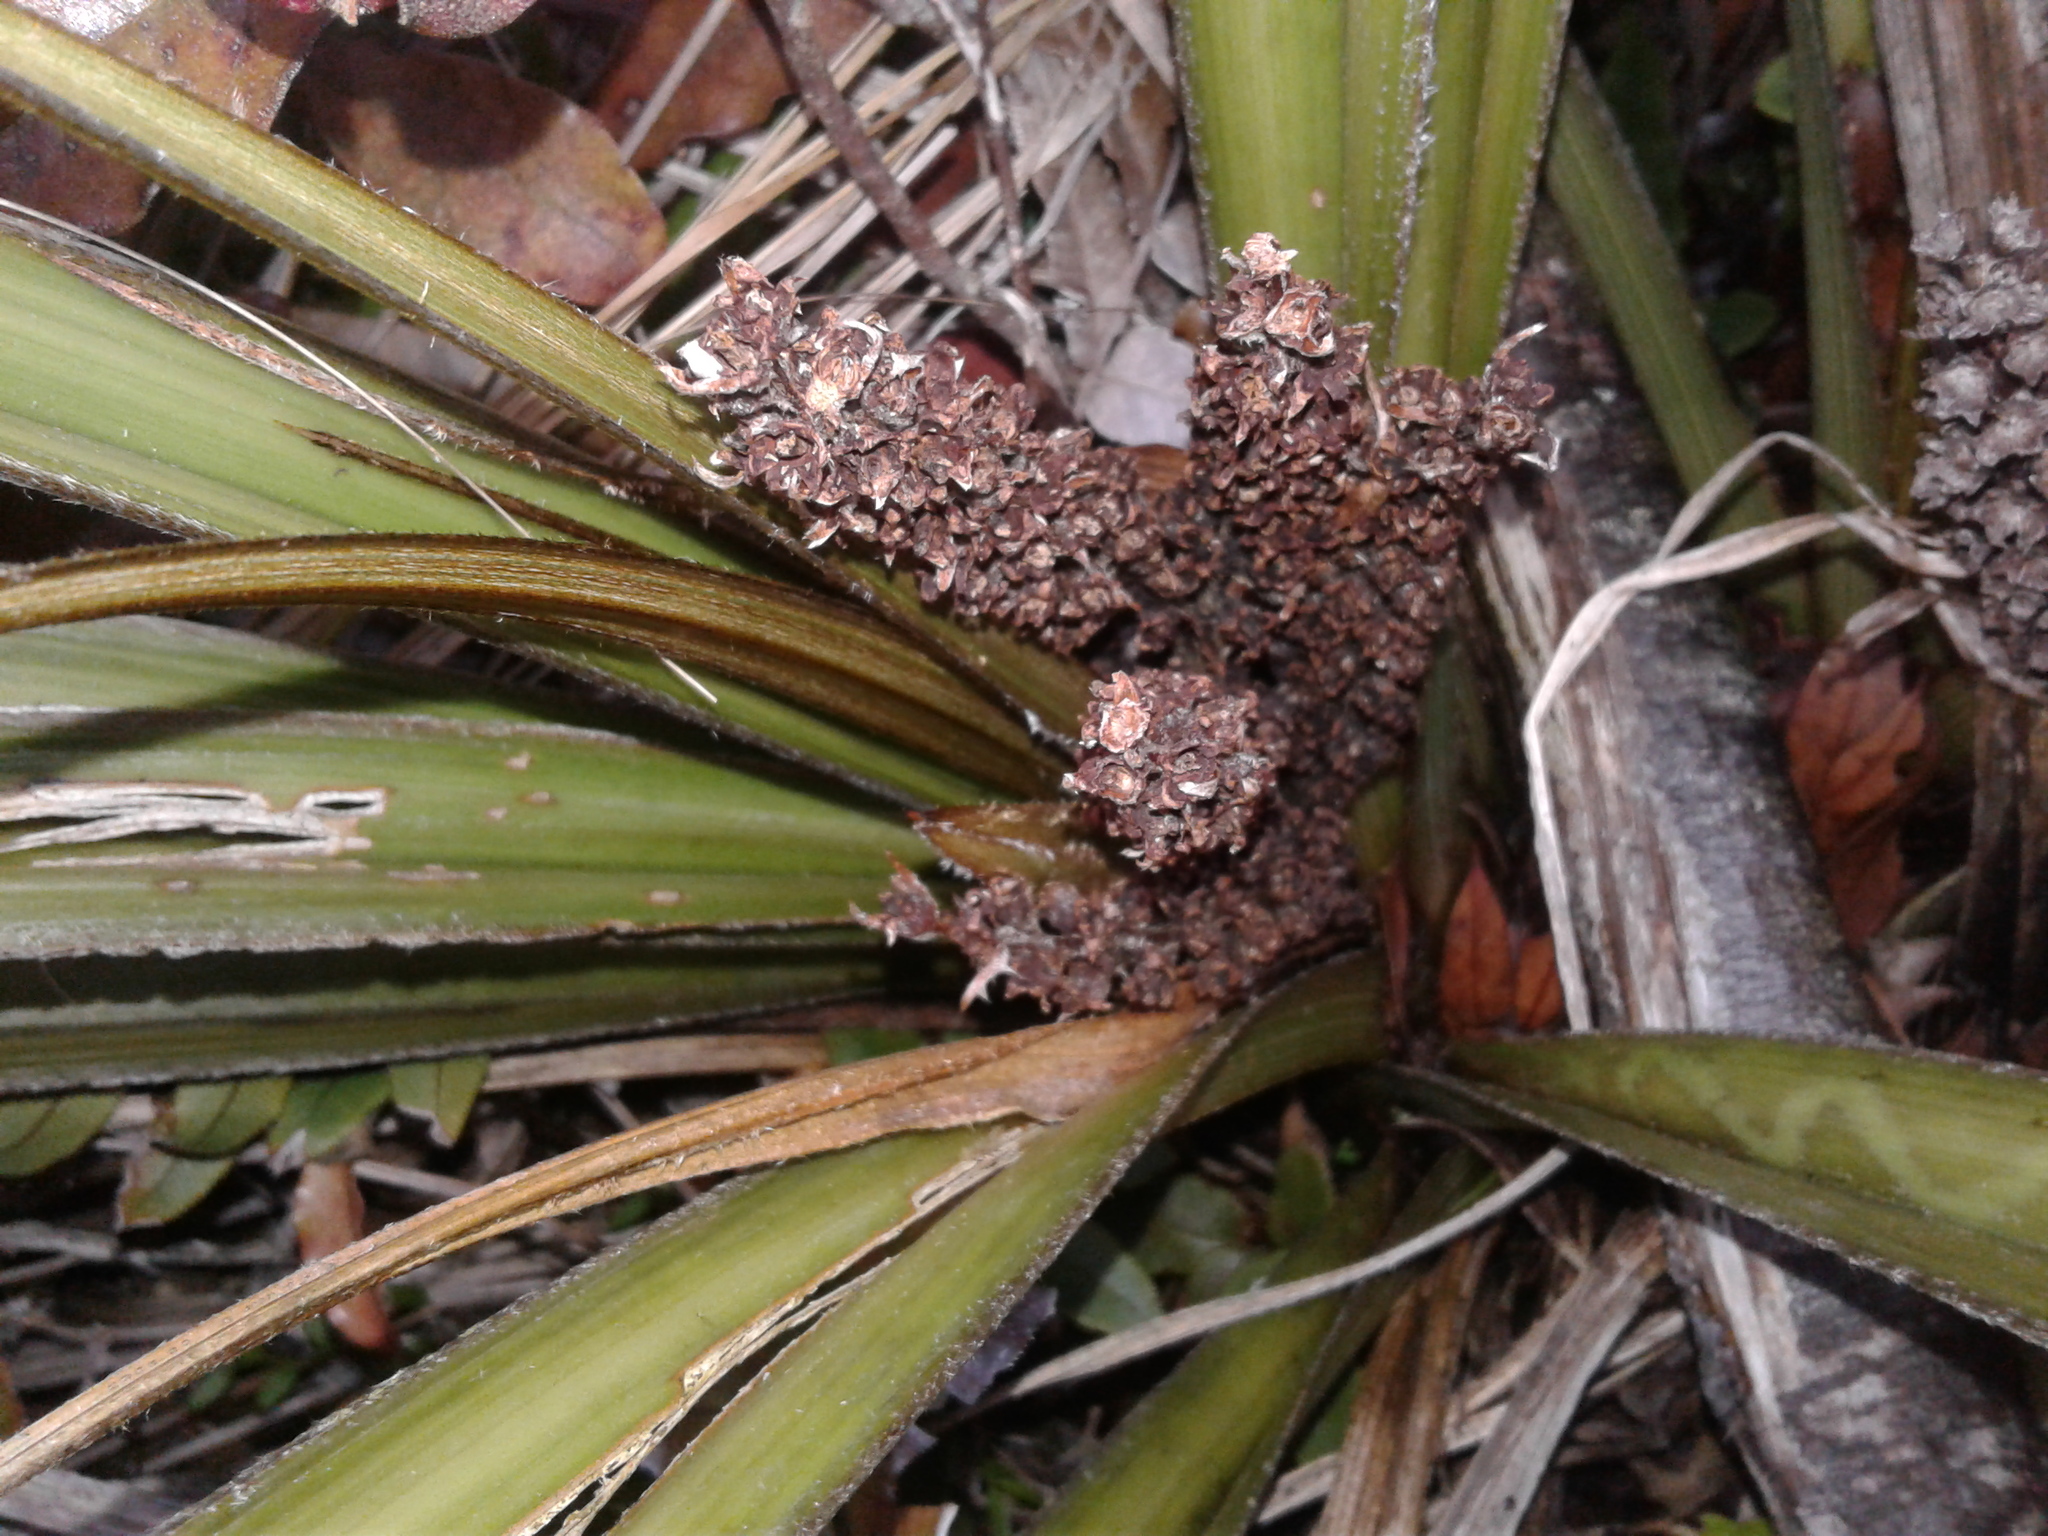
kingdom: Plantae
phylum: Tracheophyta
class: Liliopsida
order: Asparagales
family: Asteliaceae
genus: Astelia
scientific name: Astelia nervosa
